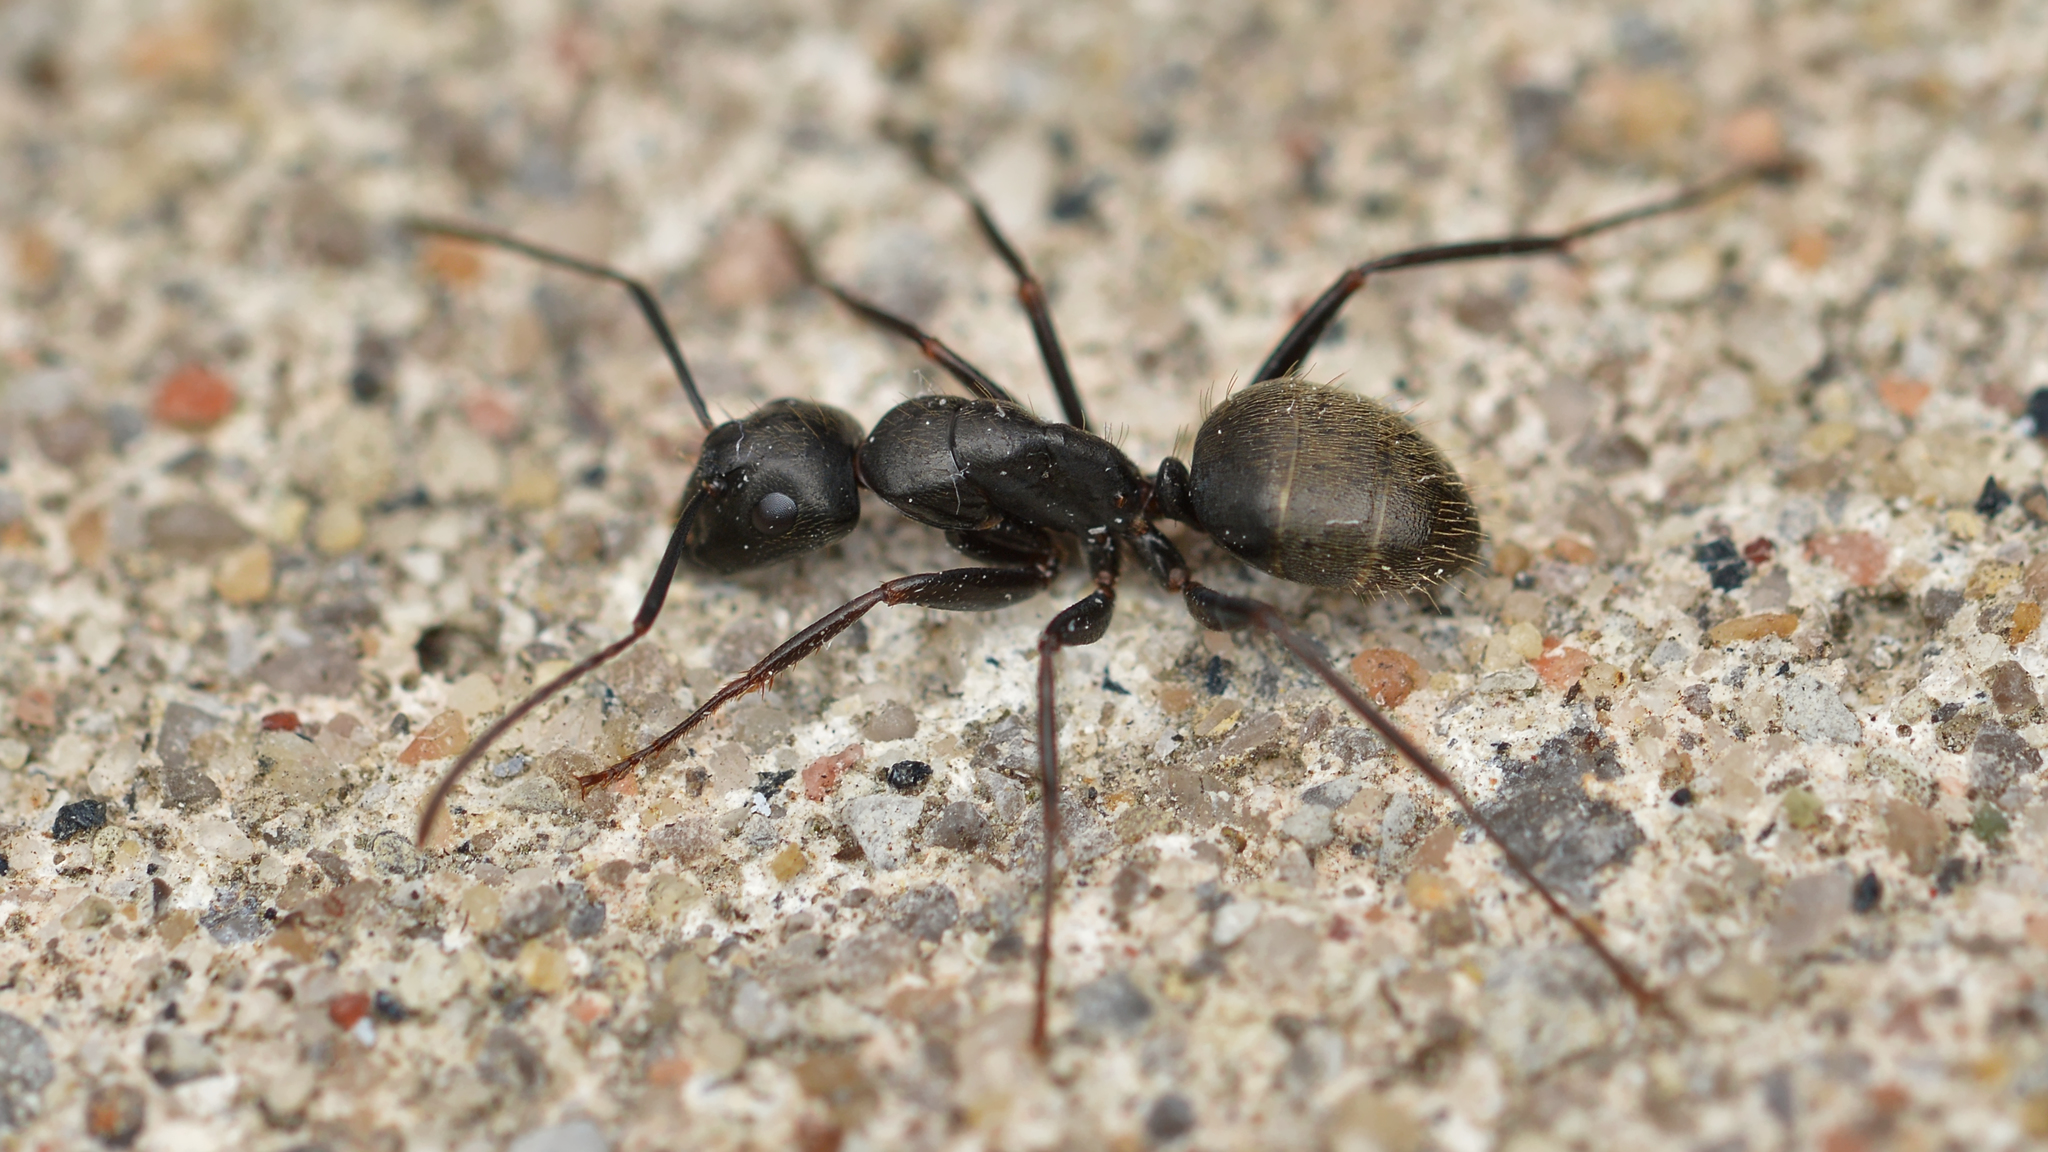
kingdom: Animalia
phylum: Arthropoda
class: Insecta
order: Hymenoptera
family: Formicidae
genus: Camponotus
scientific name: Camponotus pennsylvanicus
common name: Black carpenter ant
